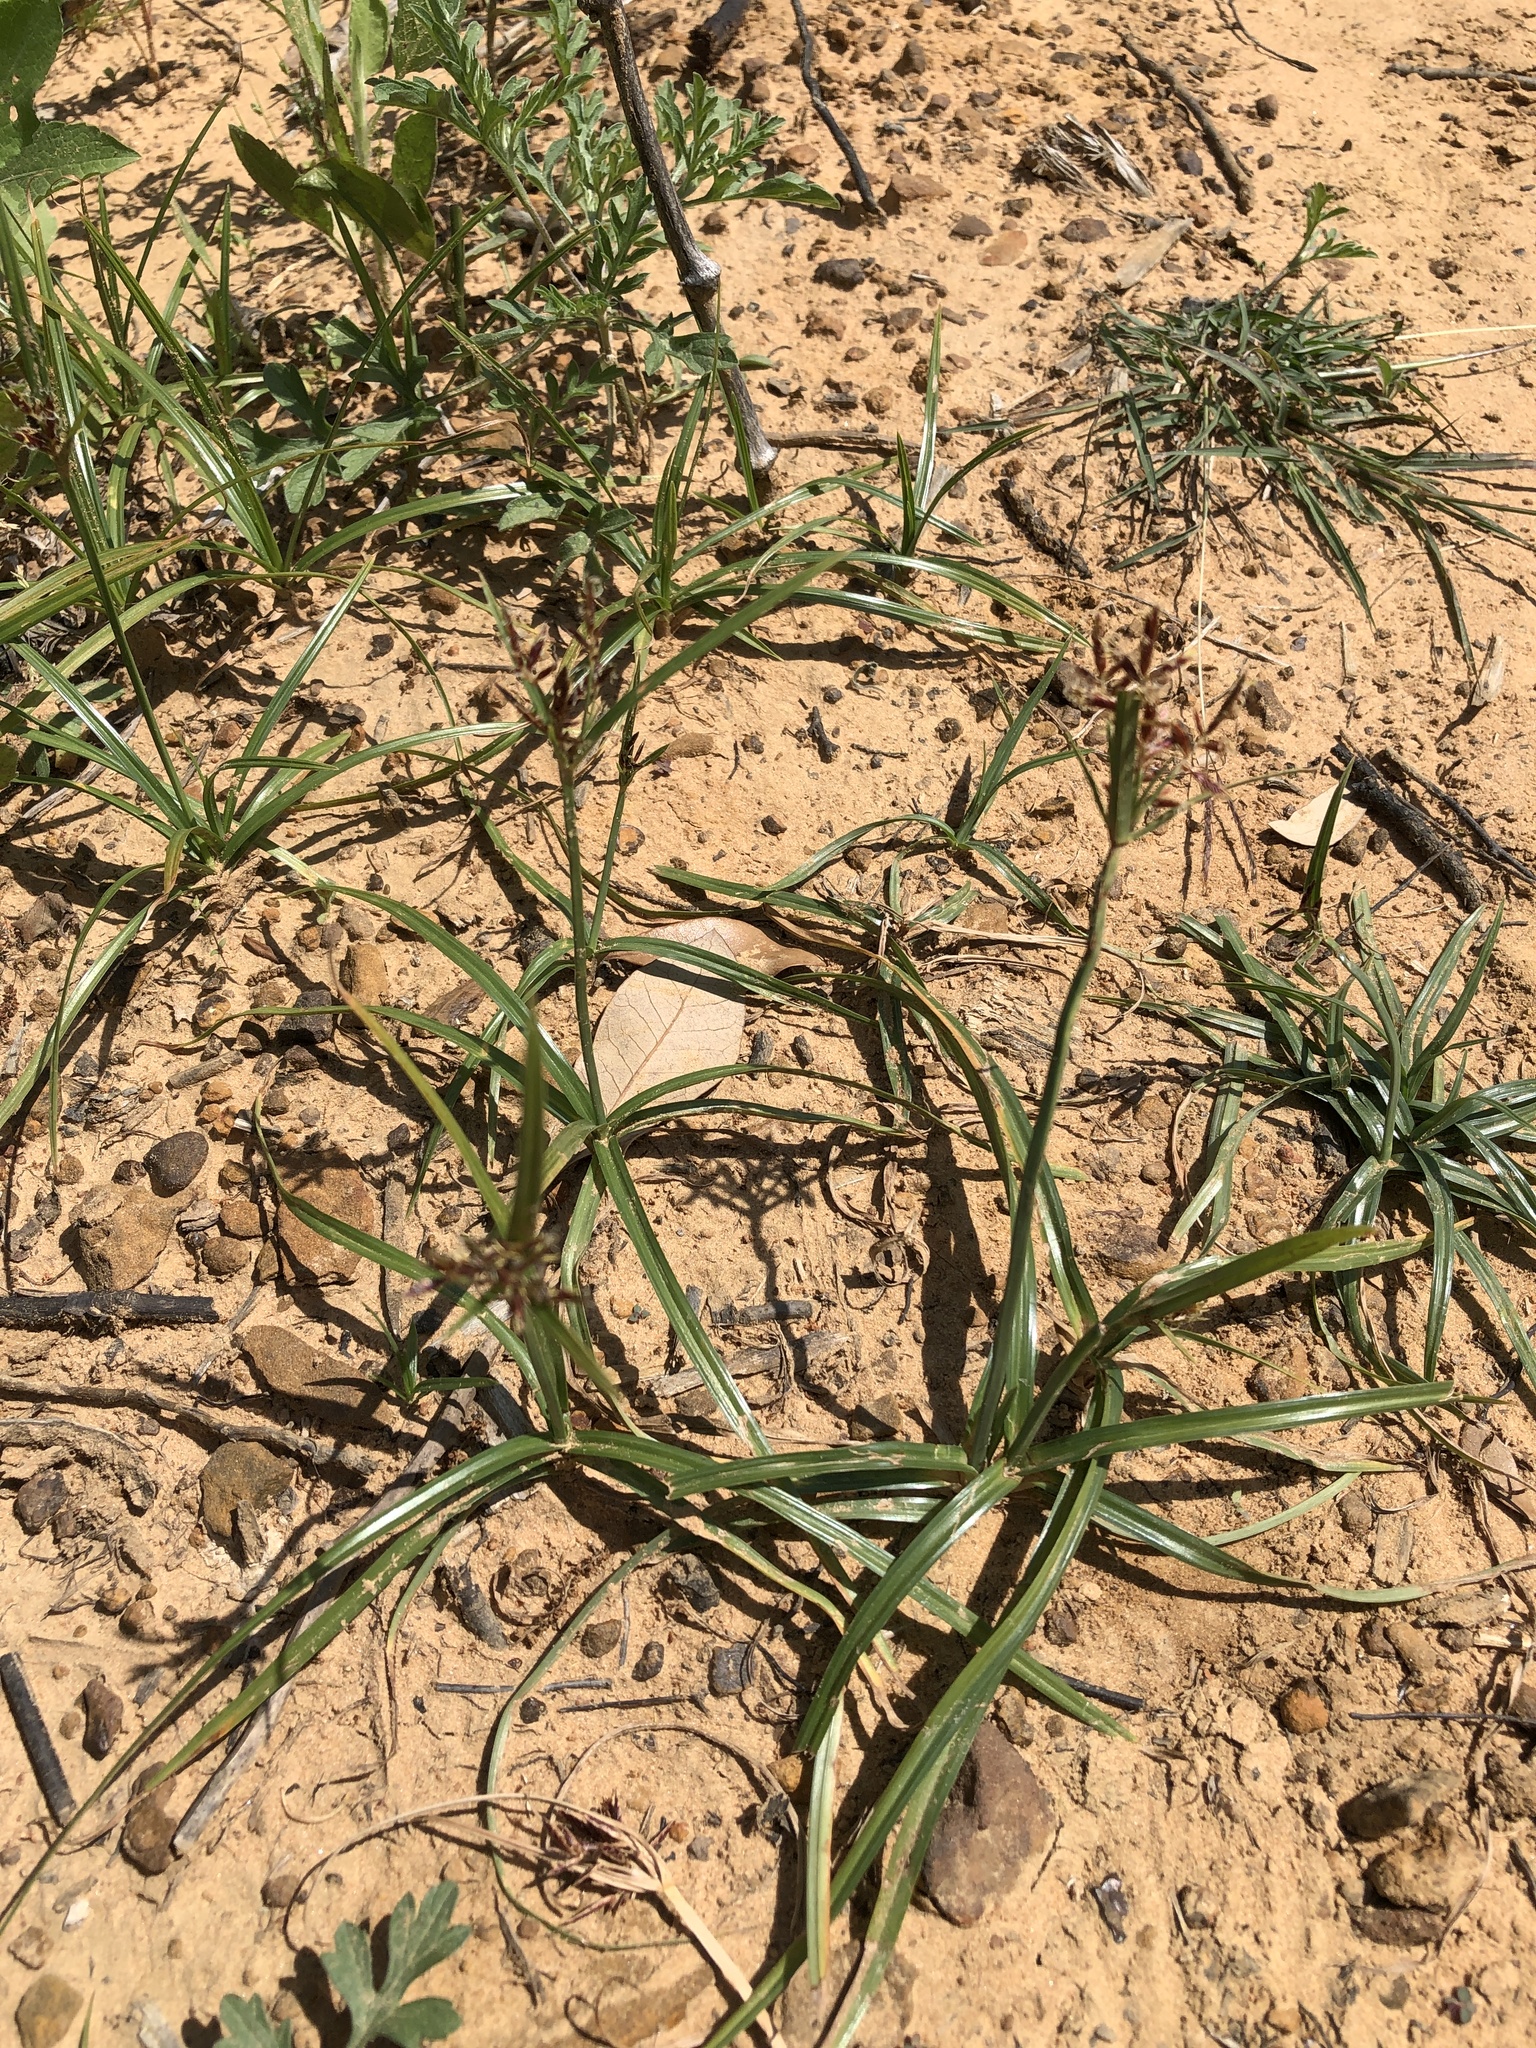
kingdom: Plantae
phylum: Tracheophyta
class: Liliopsida
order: Poales
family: Cyperaceae
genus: Cyperus
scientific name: Cyperus rotundus
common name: Nutgrass
